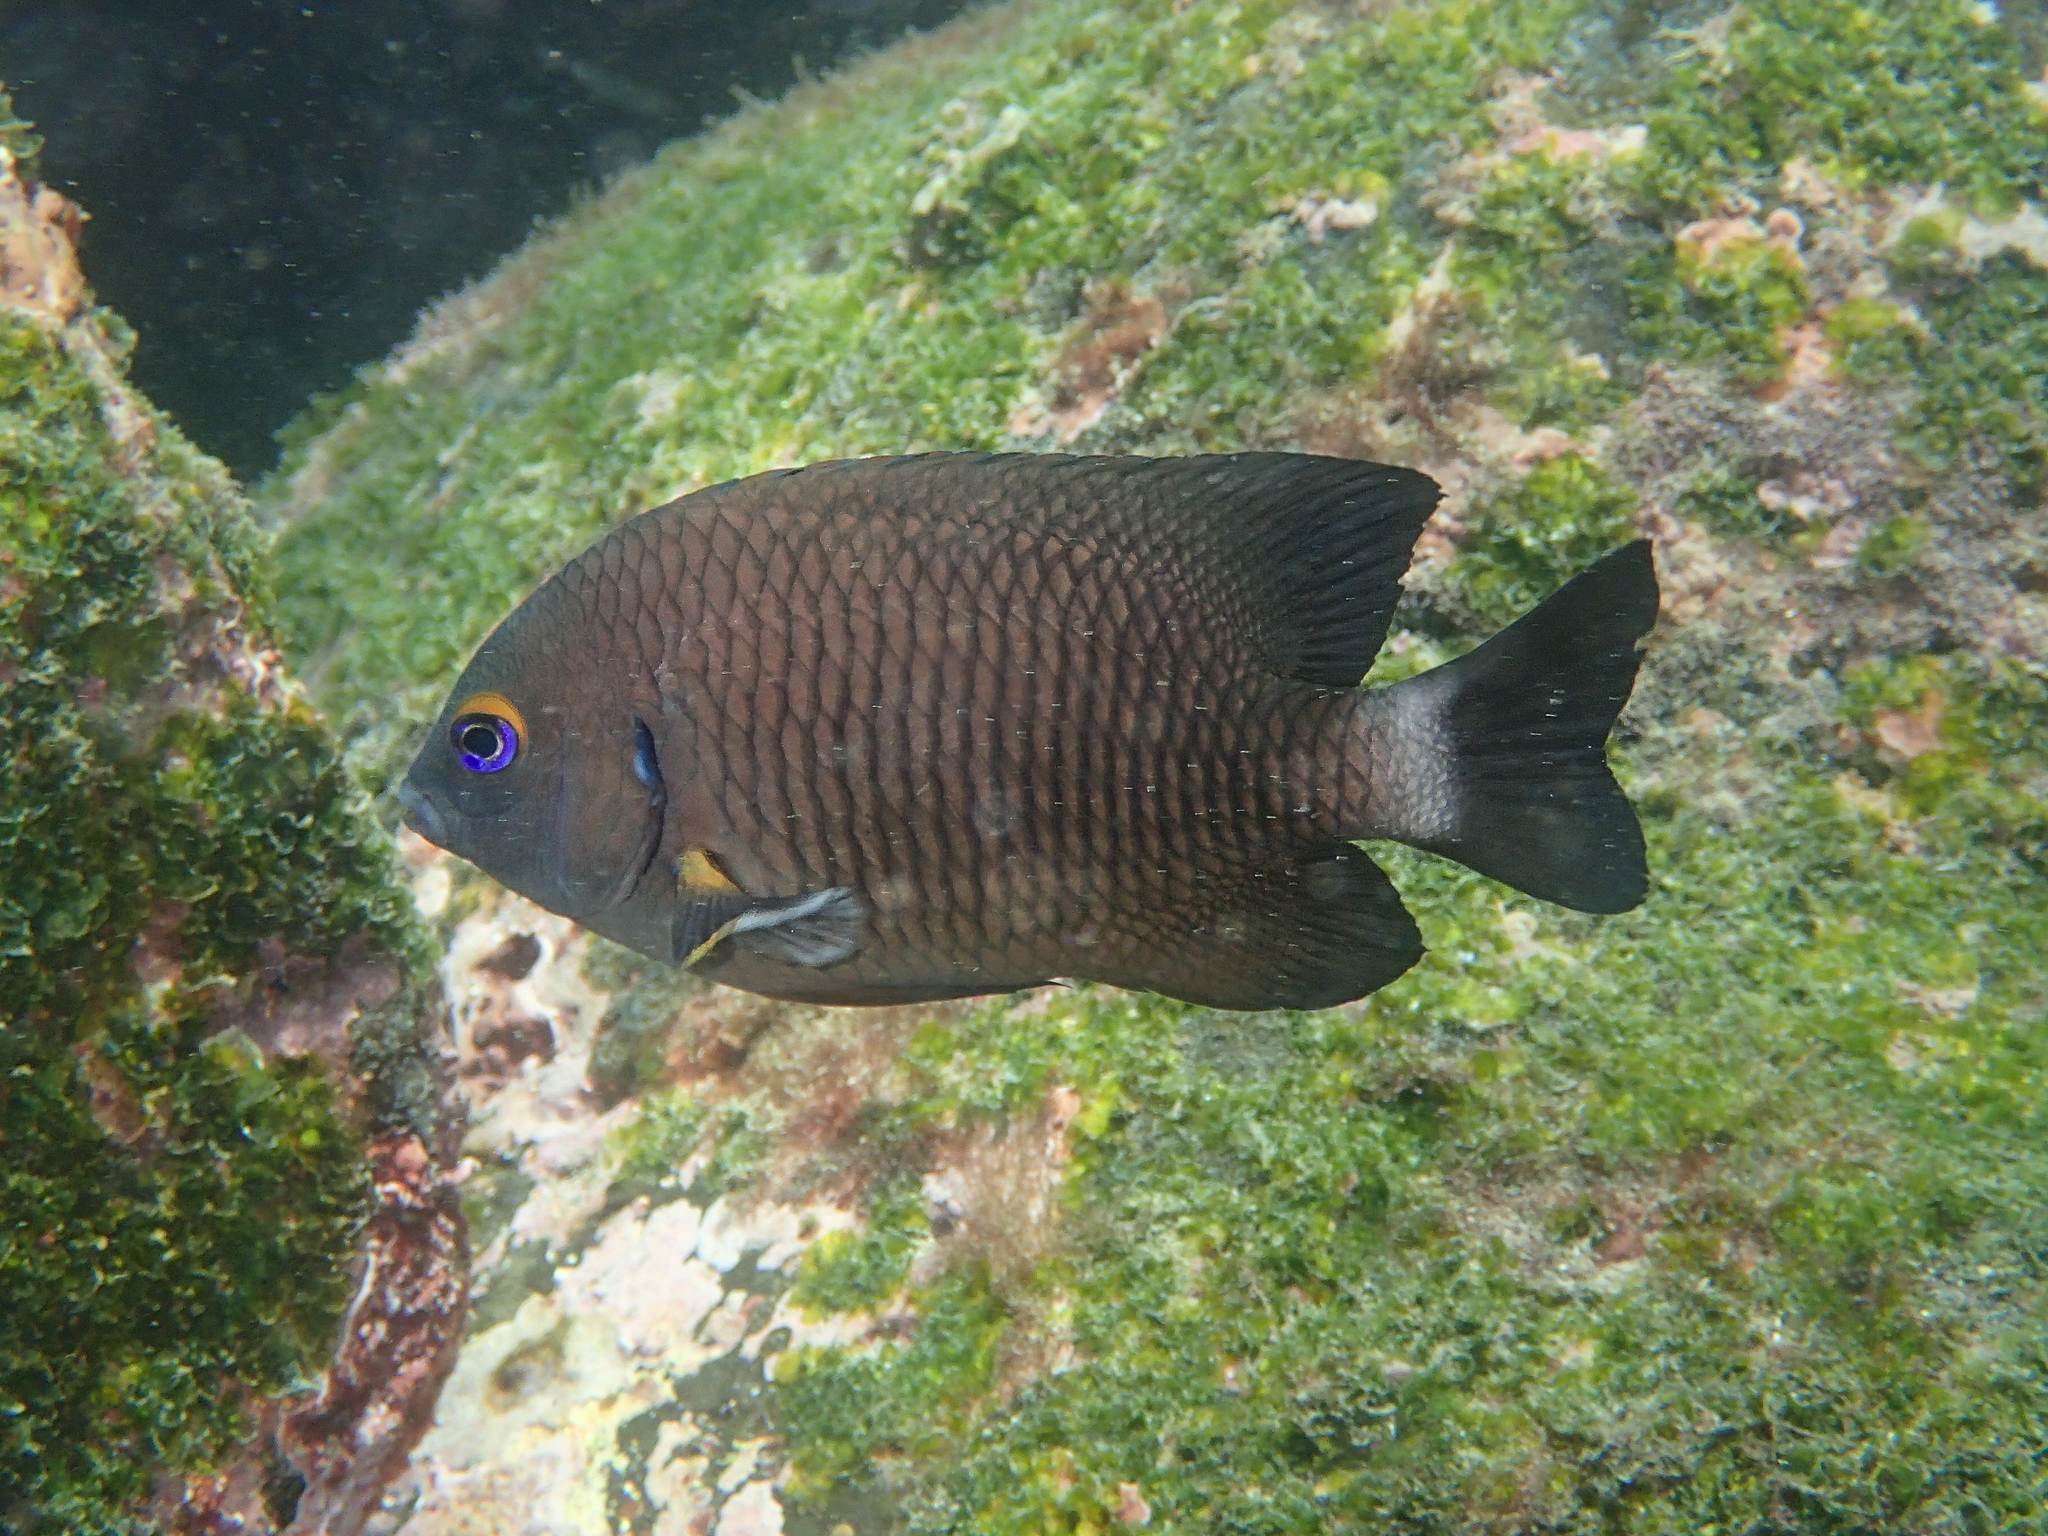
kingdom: Animalia
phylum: Chordata
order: Perciformes
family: Pomacentridae
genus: Stegastes
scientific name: Stegastes beebei
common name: Galapagos ringtail damselfish
